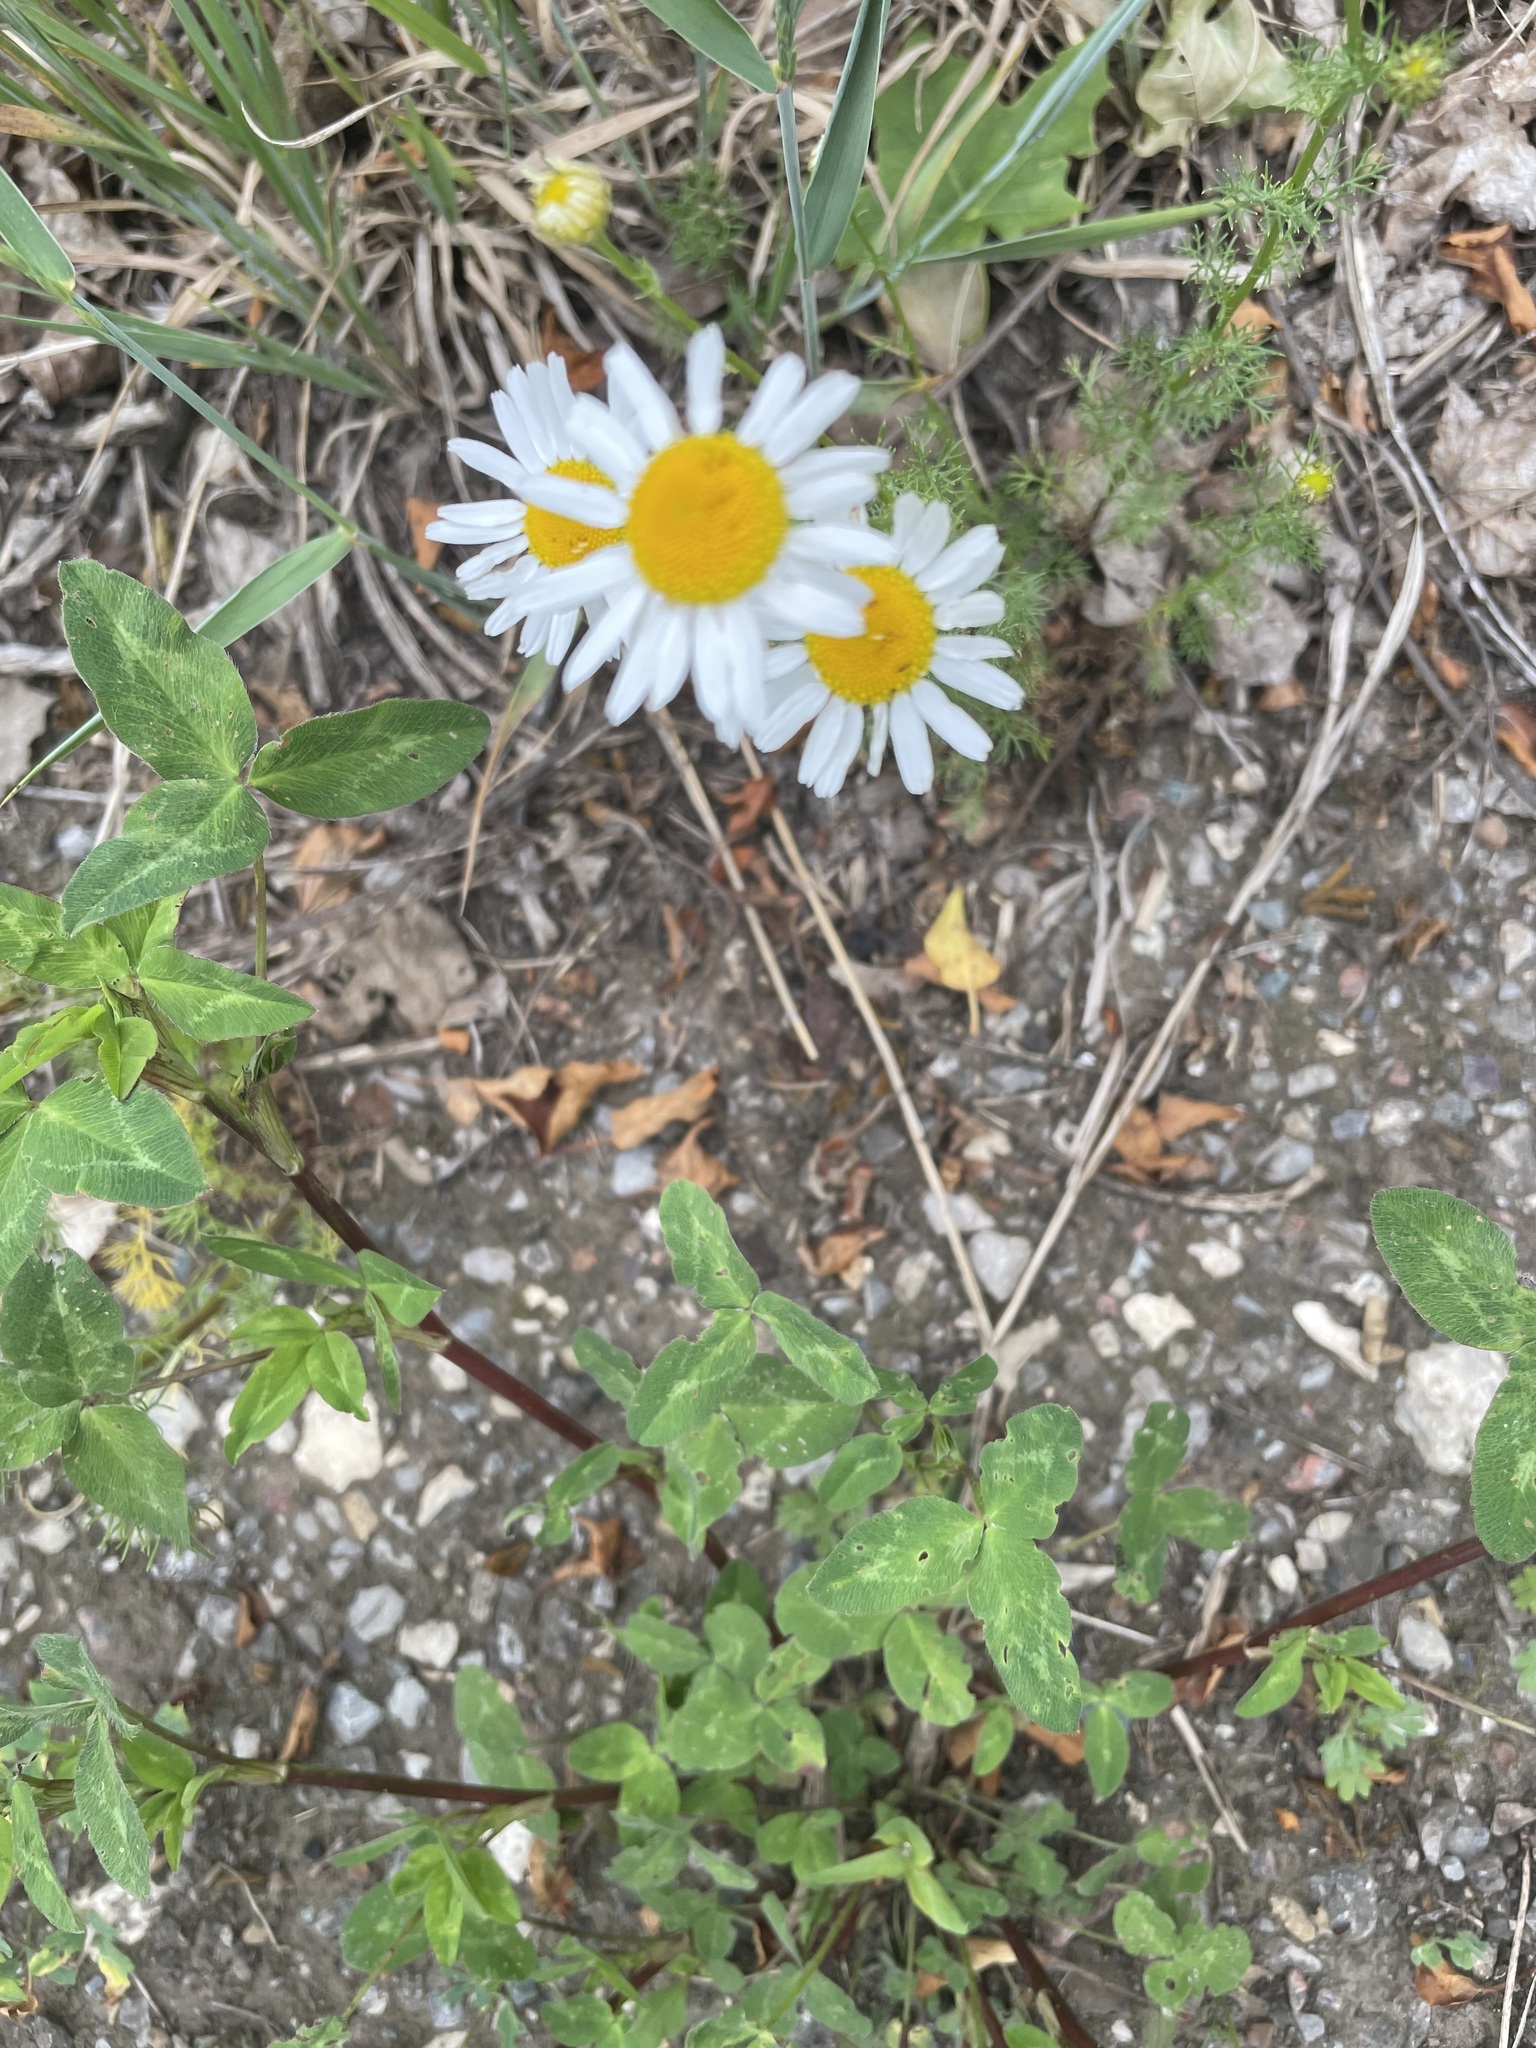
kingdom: Plantae
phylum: Tracheophyta
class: Magnoliopsida
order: Asterales
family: Asteraceae
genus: Tripleurospermum
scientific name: Tripleurospermum inodorum
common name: Scentless mayweed
